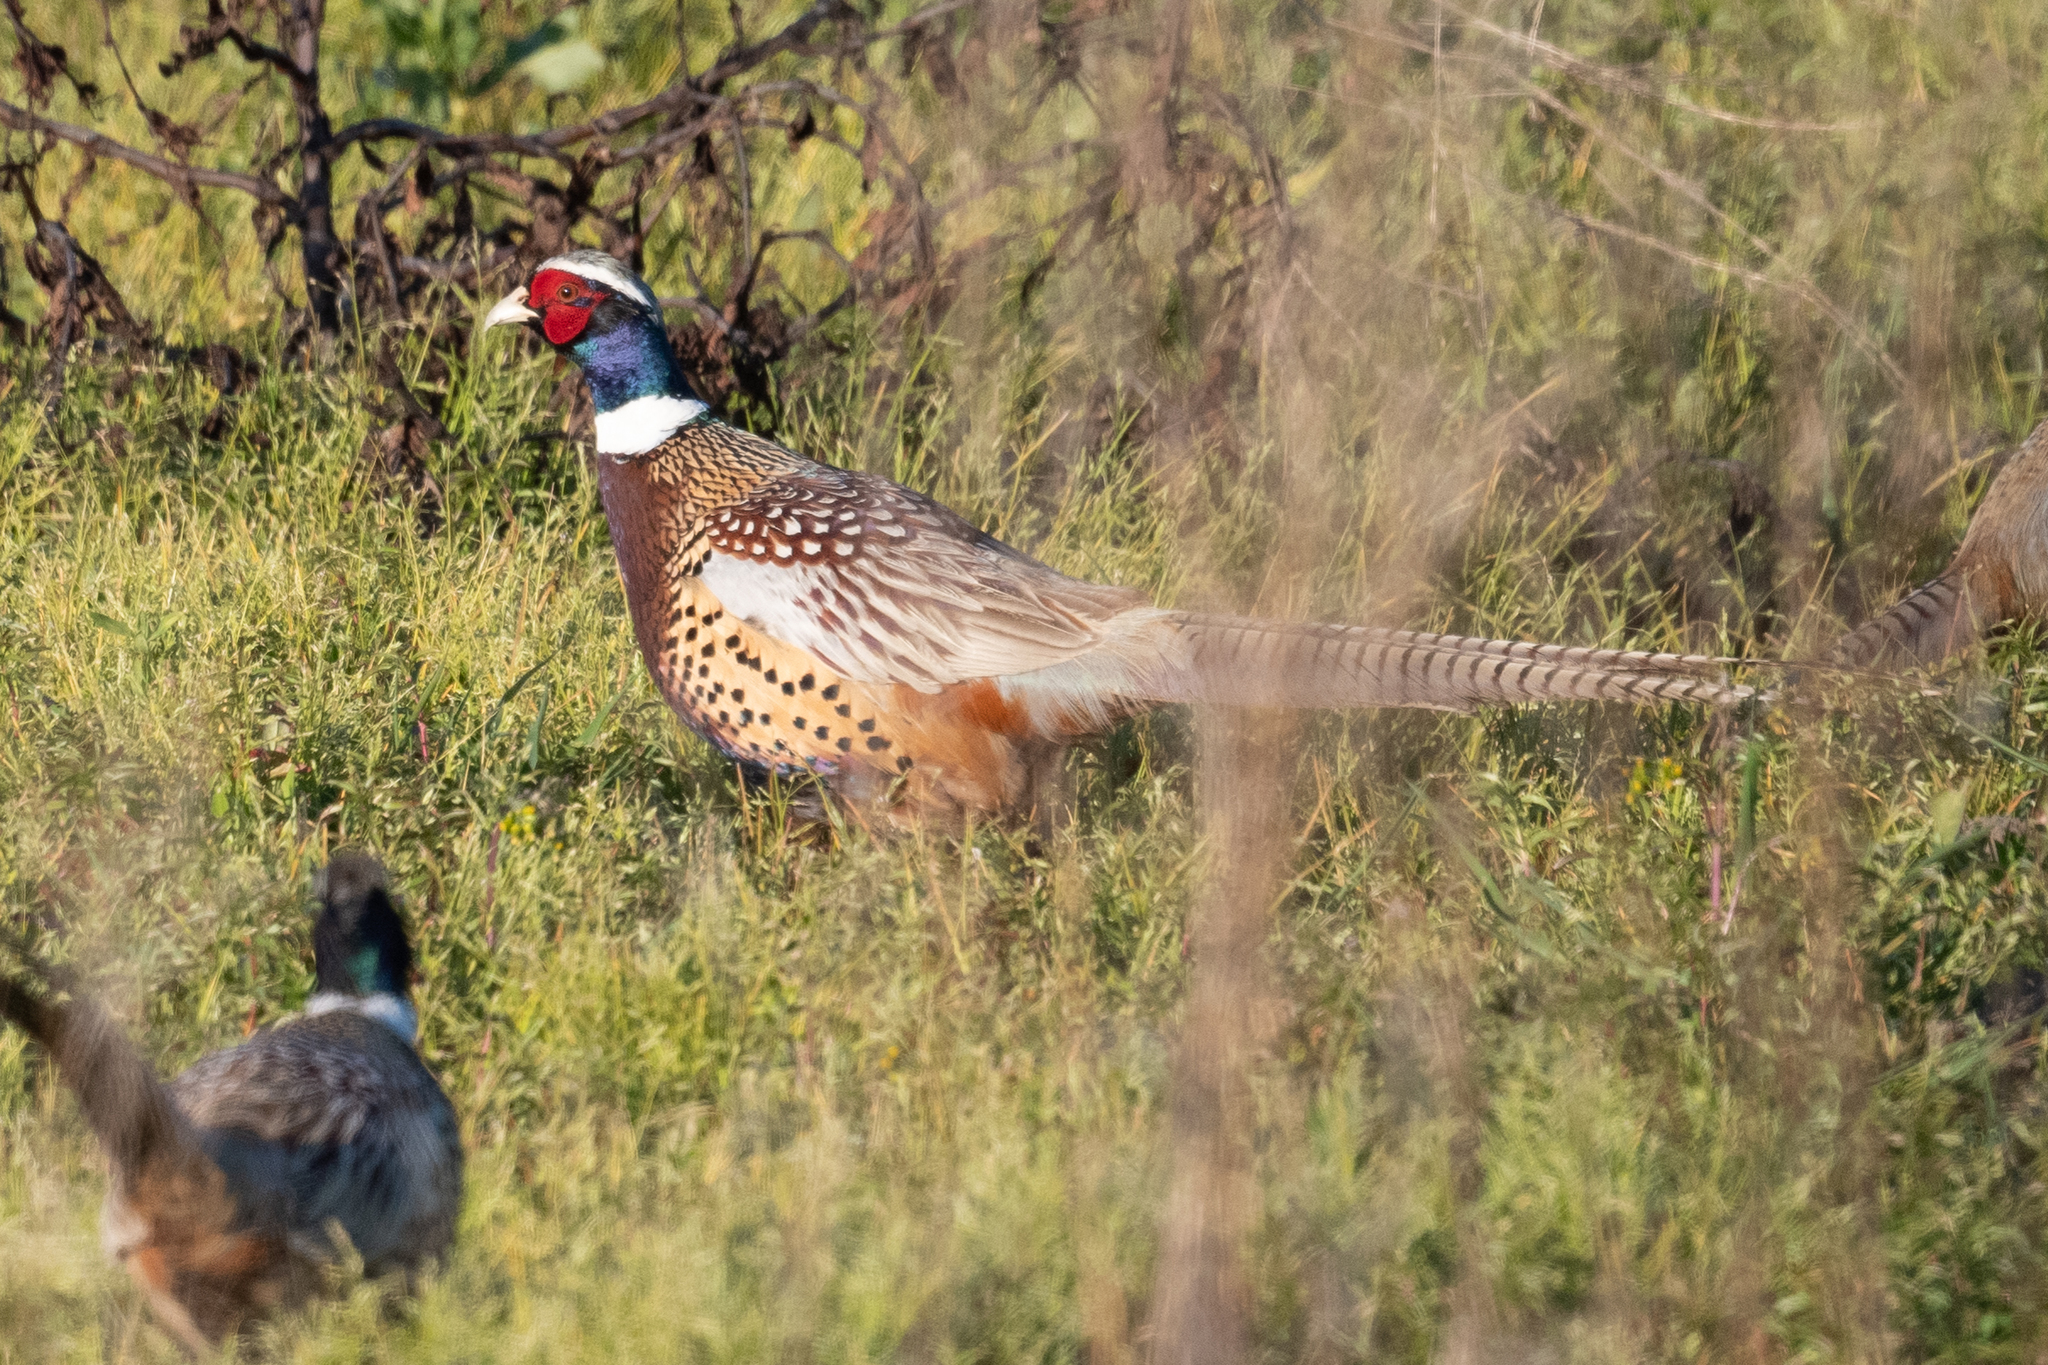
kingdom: Animalia
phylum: Chordata
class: Aves
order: Galliformes
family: Phasianidae
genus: Phasianus
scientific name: Phasianus colchicus
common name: Common pheasant
